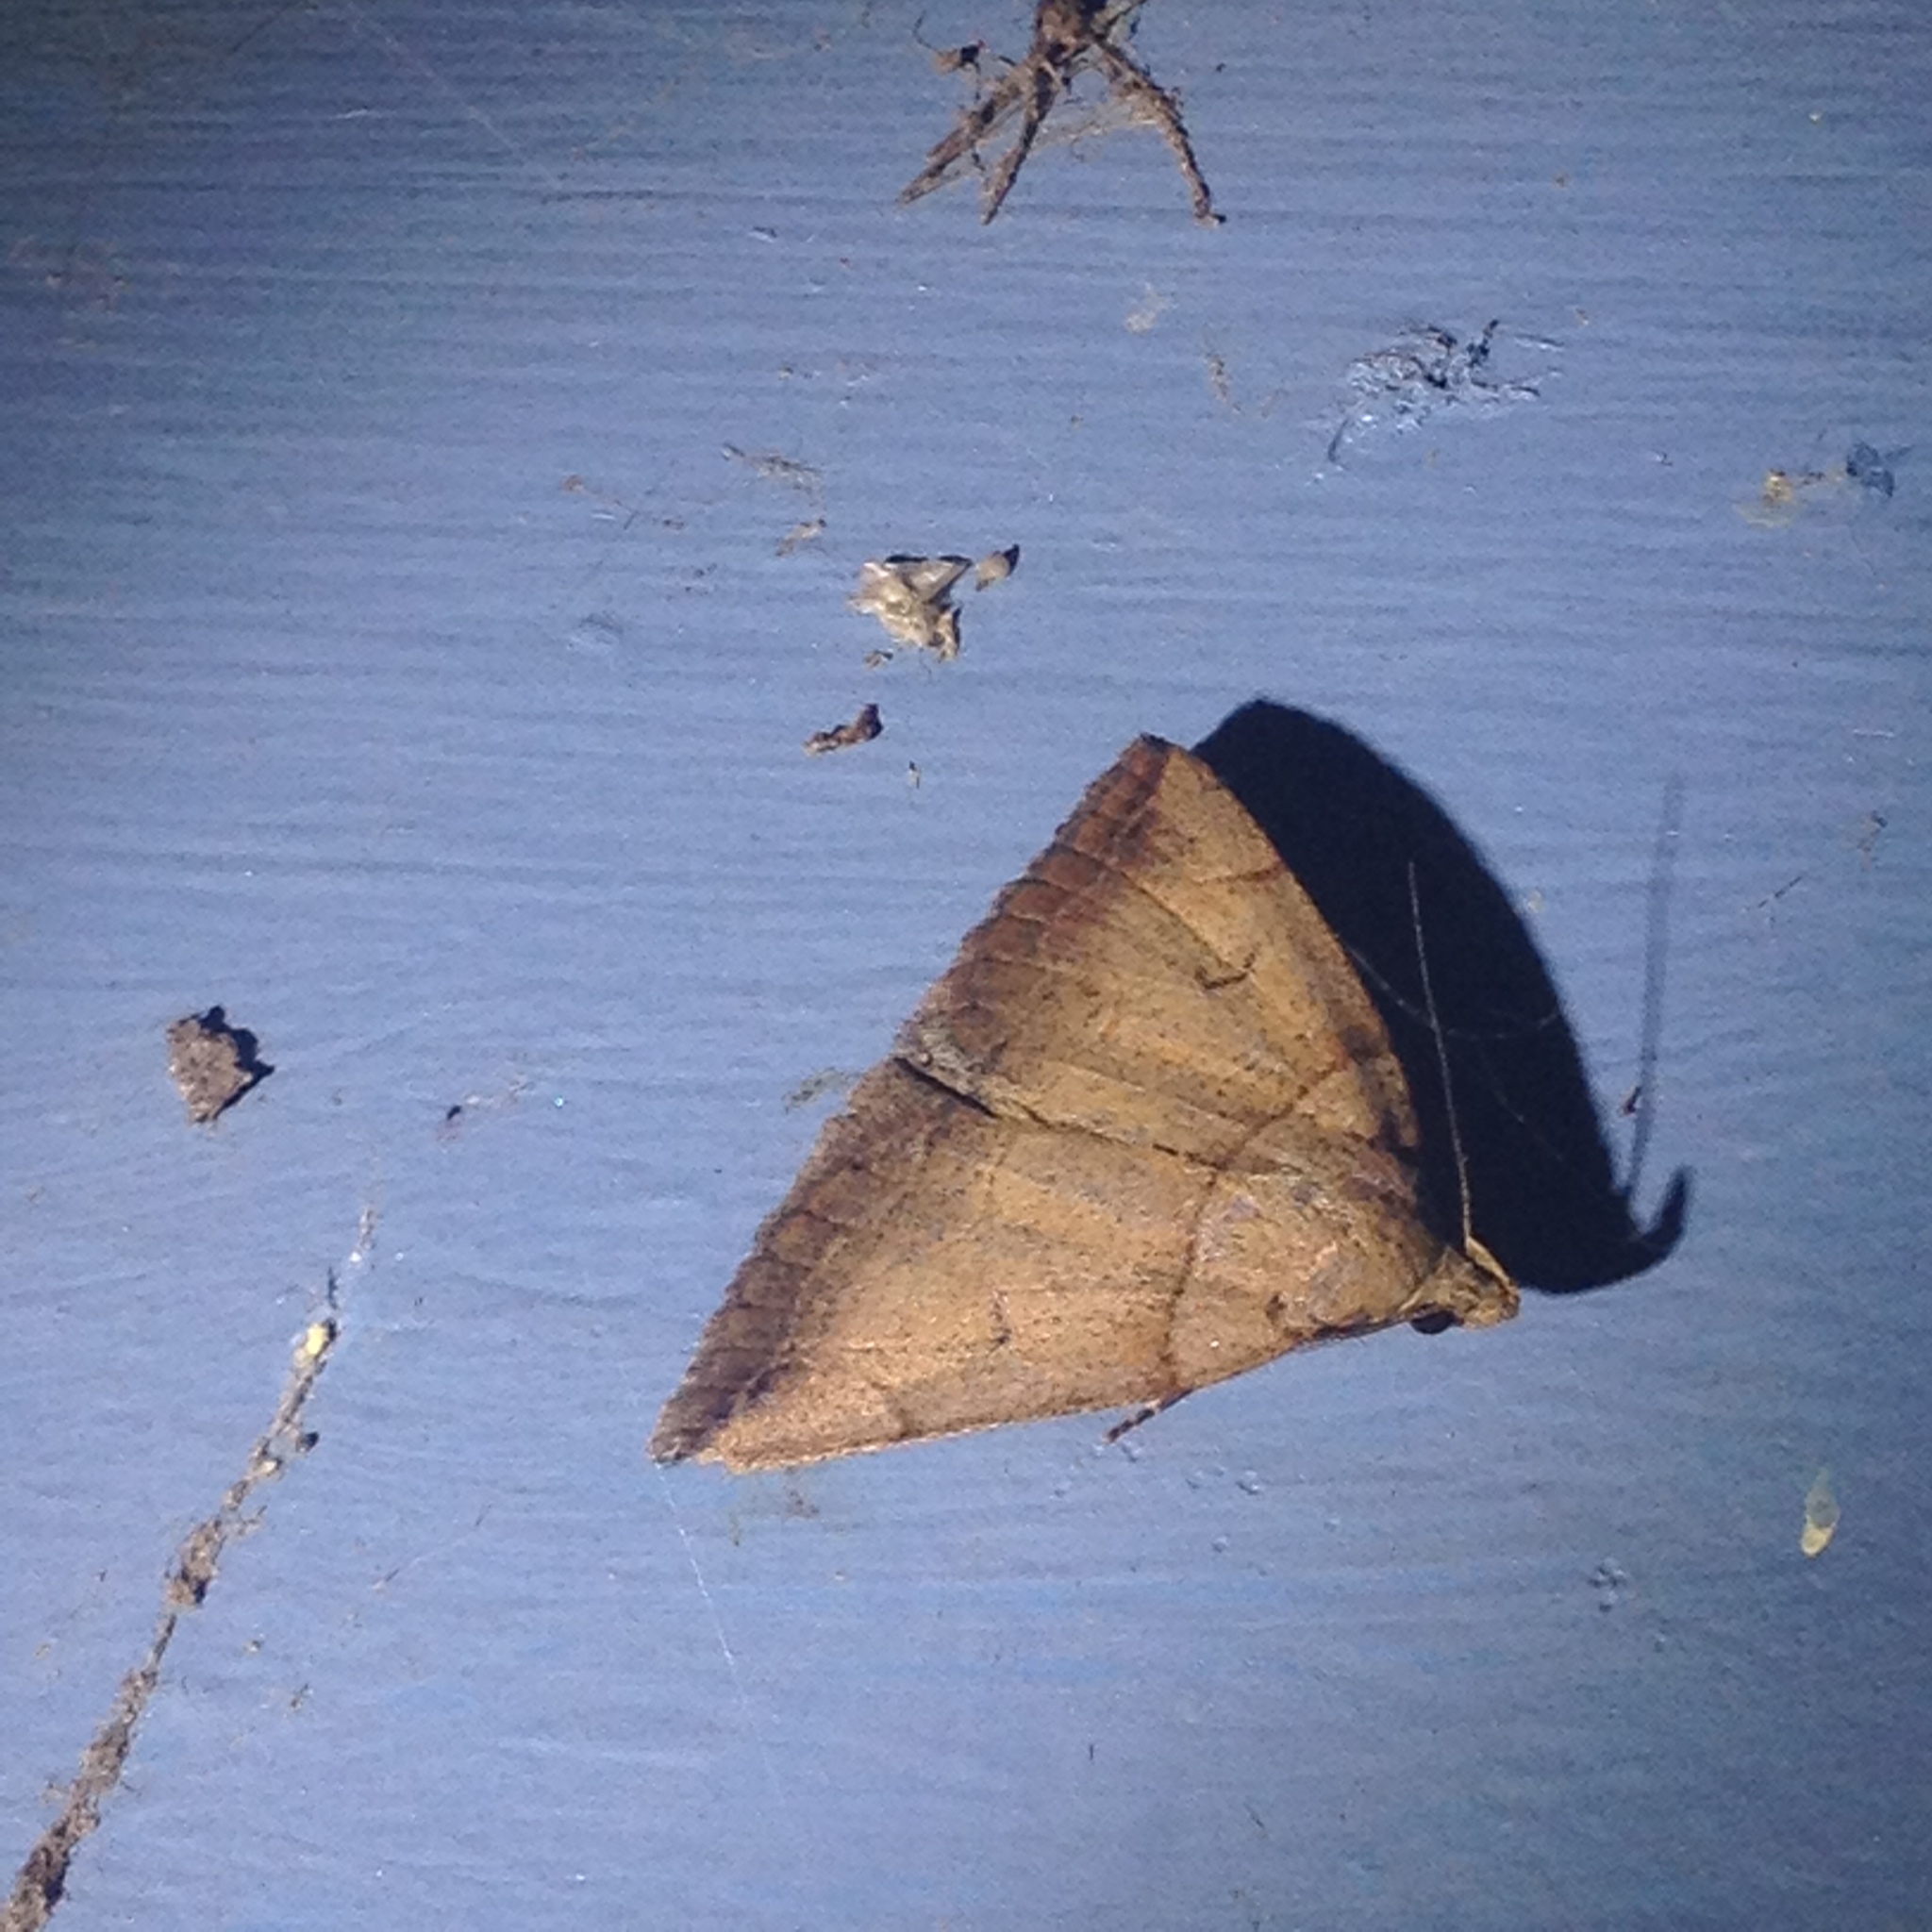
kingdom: Animalia
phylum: Arthropoda
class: Insecta
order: Lepidoptera
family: Erebidae
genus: Zanclognatha
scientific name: Zanclognatha laevigata
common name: Variable fan-foot
